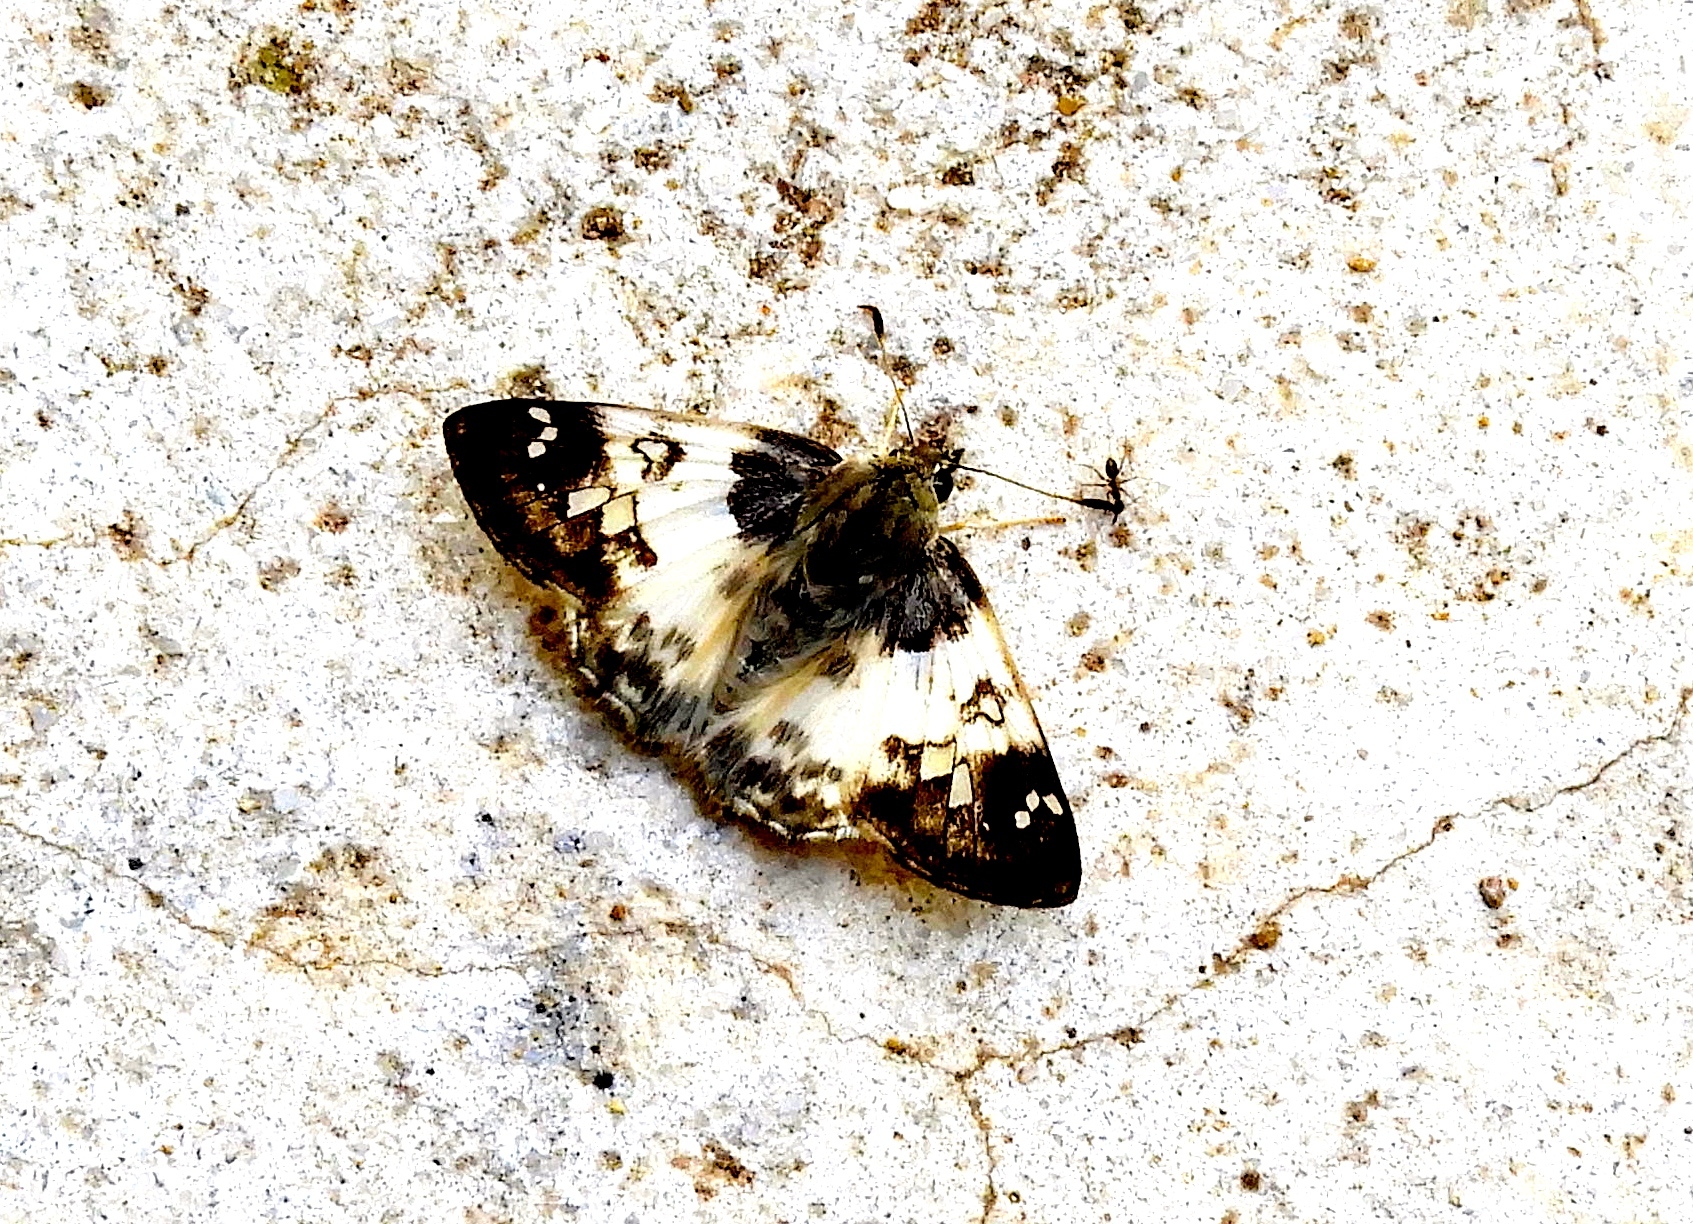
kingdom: Animalia
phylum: Arthropoda
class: Insecta
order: Lepidoptera
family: Hesperiidae
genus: Polyctor
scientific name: Polyctor enops
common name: Enops tufted-skipper
